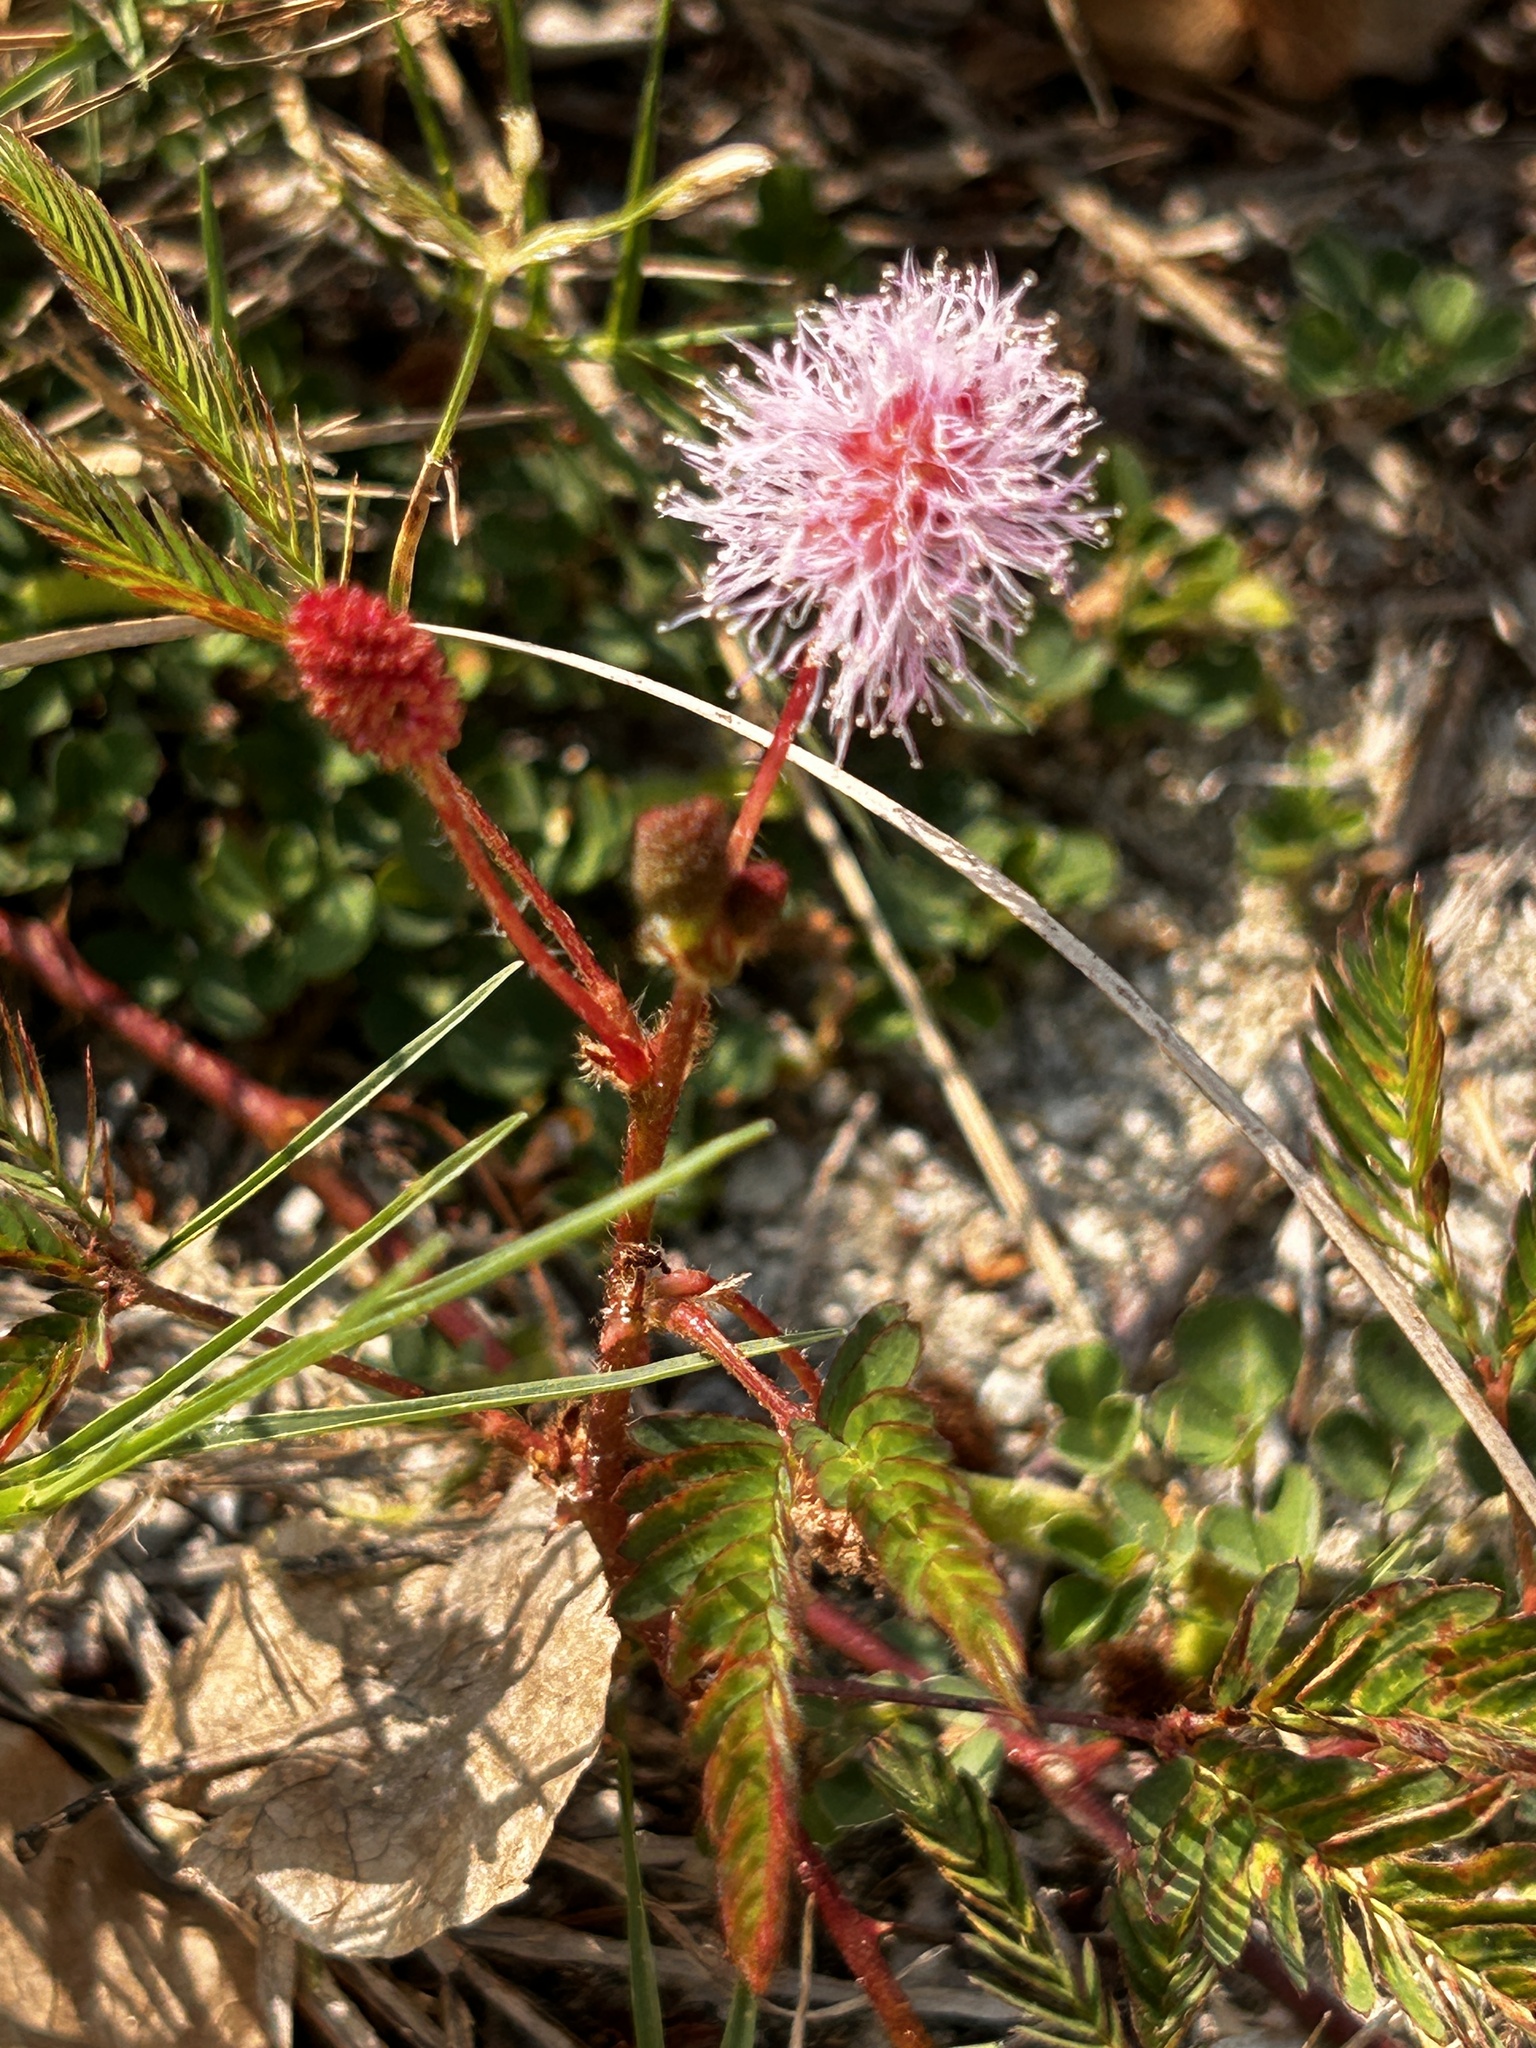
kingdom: Plantae
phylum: Tracheophyta
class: Magnoliopsida
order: Fabales
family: Fabaceae
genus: Mimosa
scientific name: Mimosa pudica
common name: Sensitive plant
